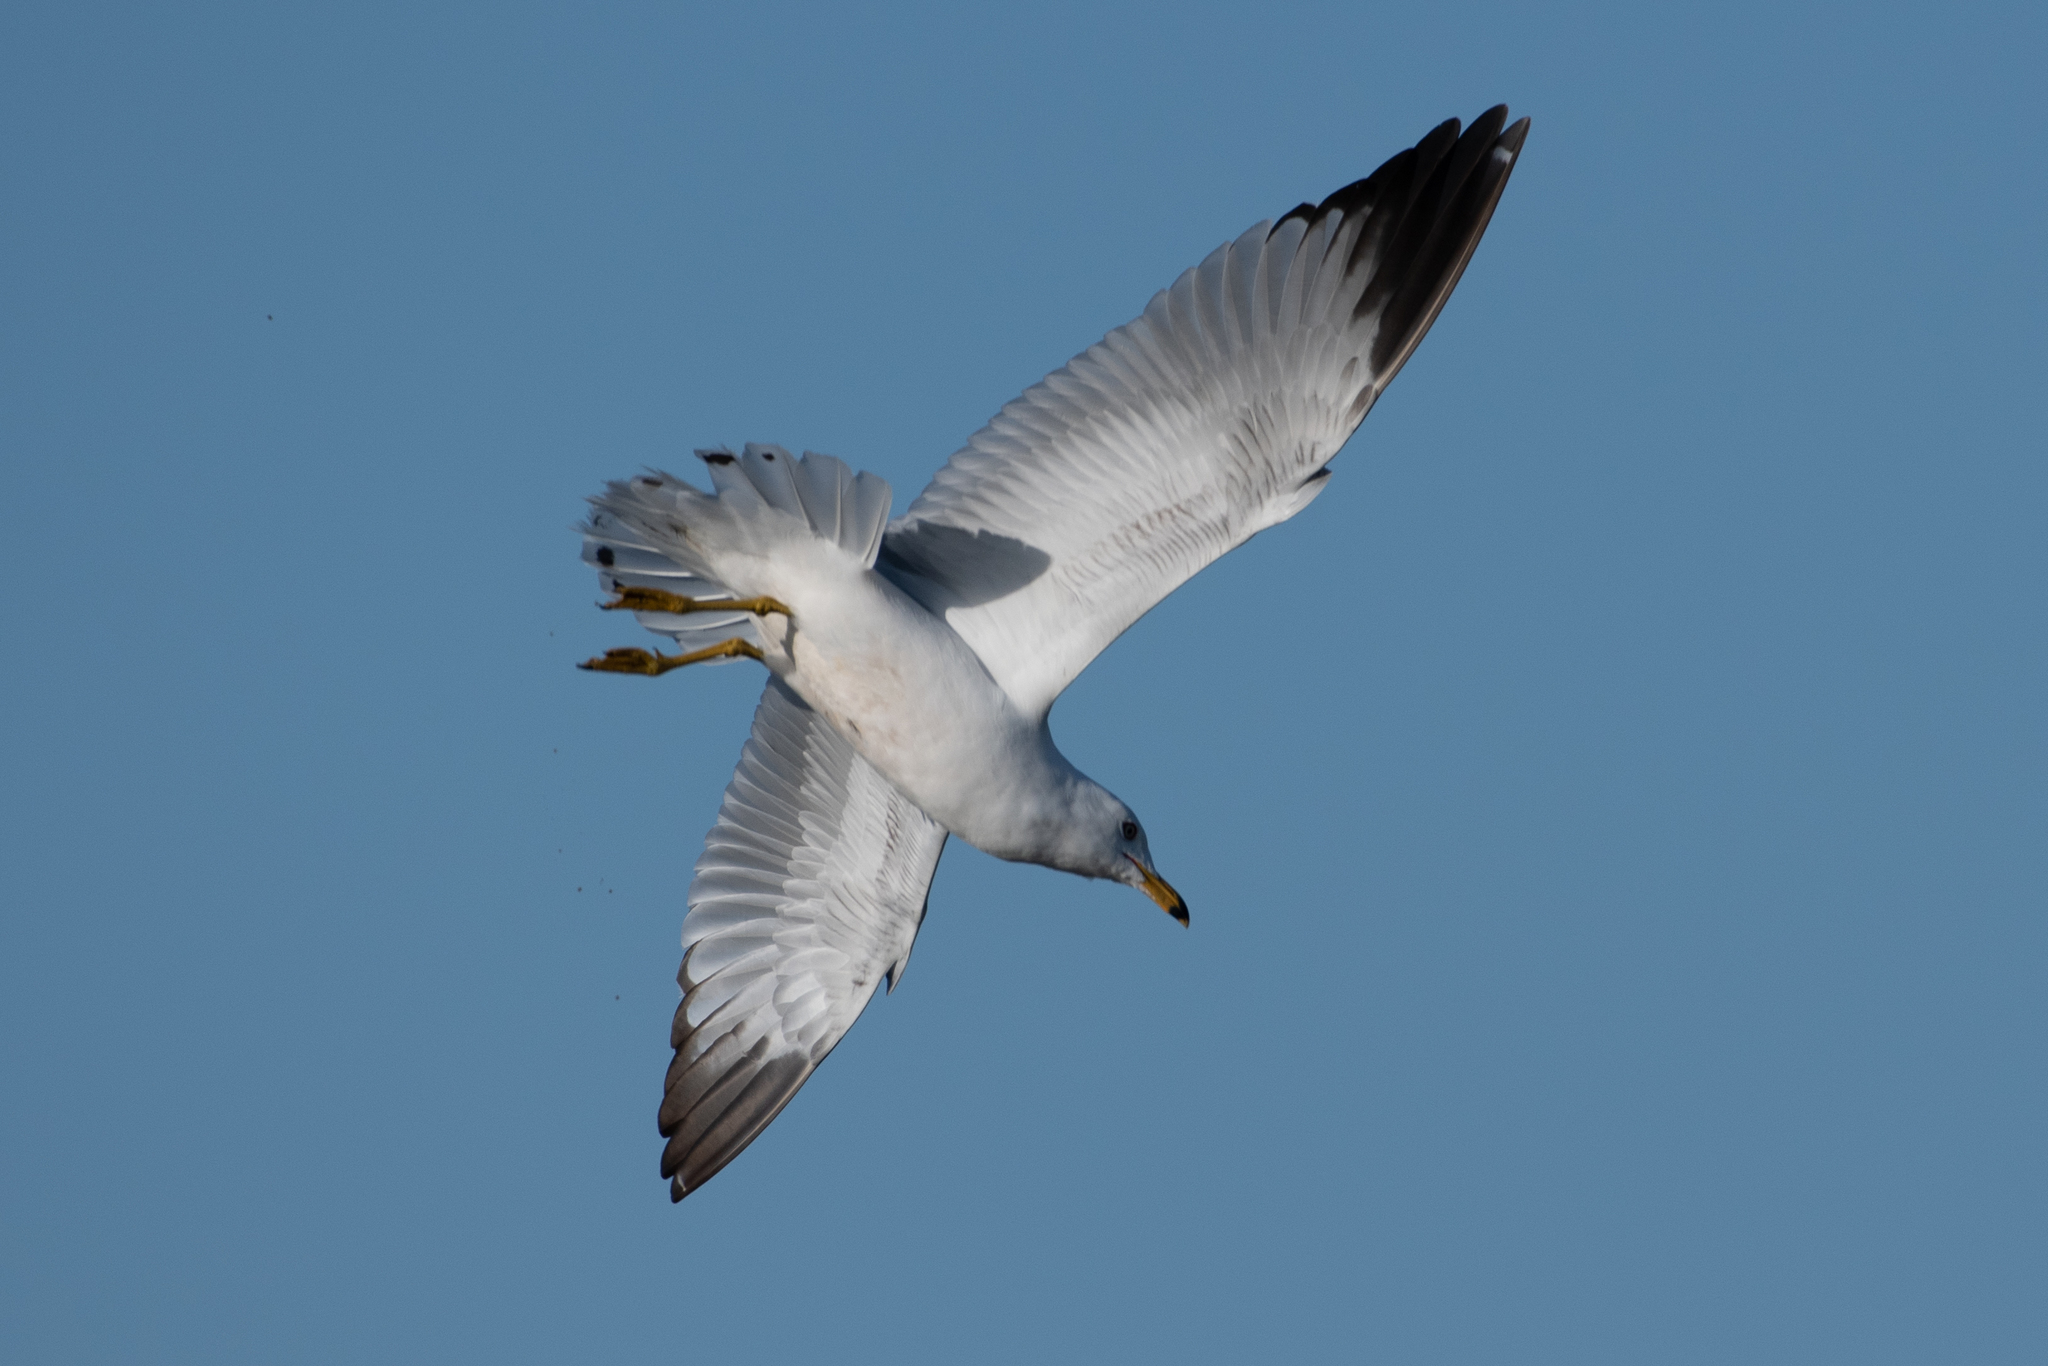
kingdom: Animalia
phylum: Chordata
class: Aves
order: Charadriiformes
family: Laridae
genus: Larus
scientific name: Larus delawarensis
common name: Ring-billed gull
